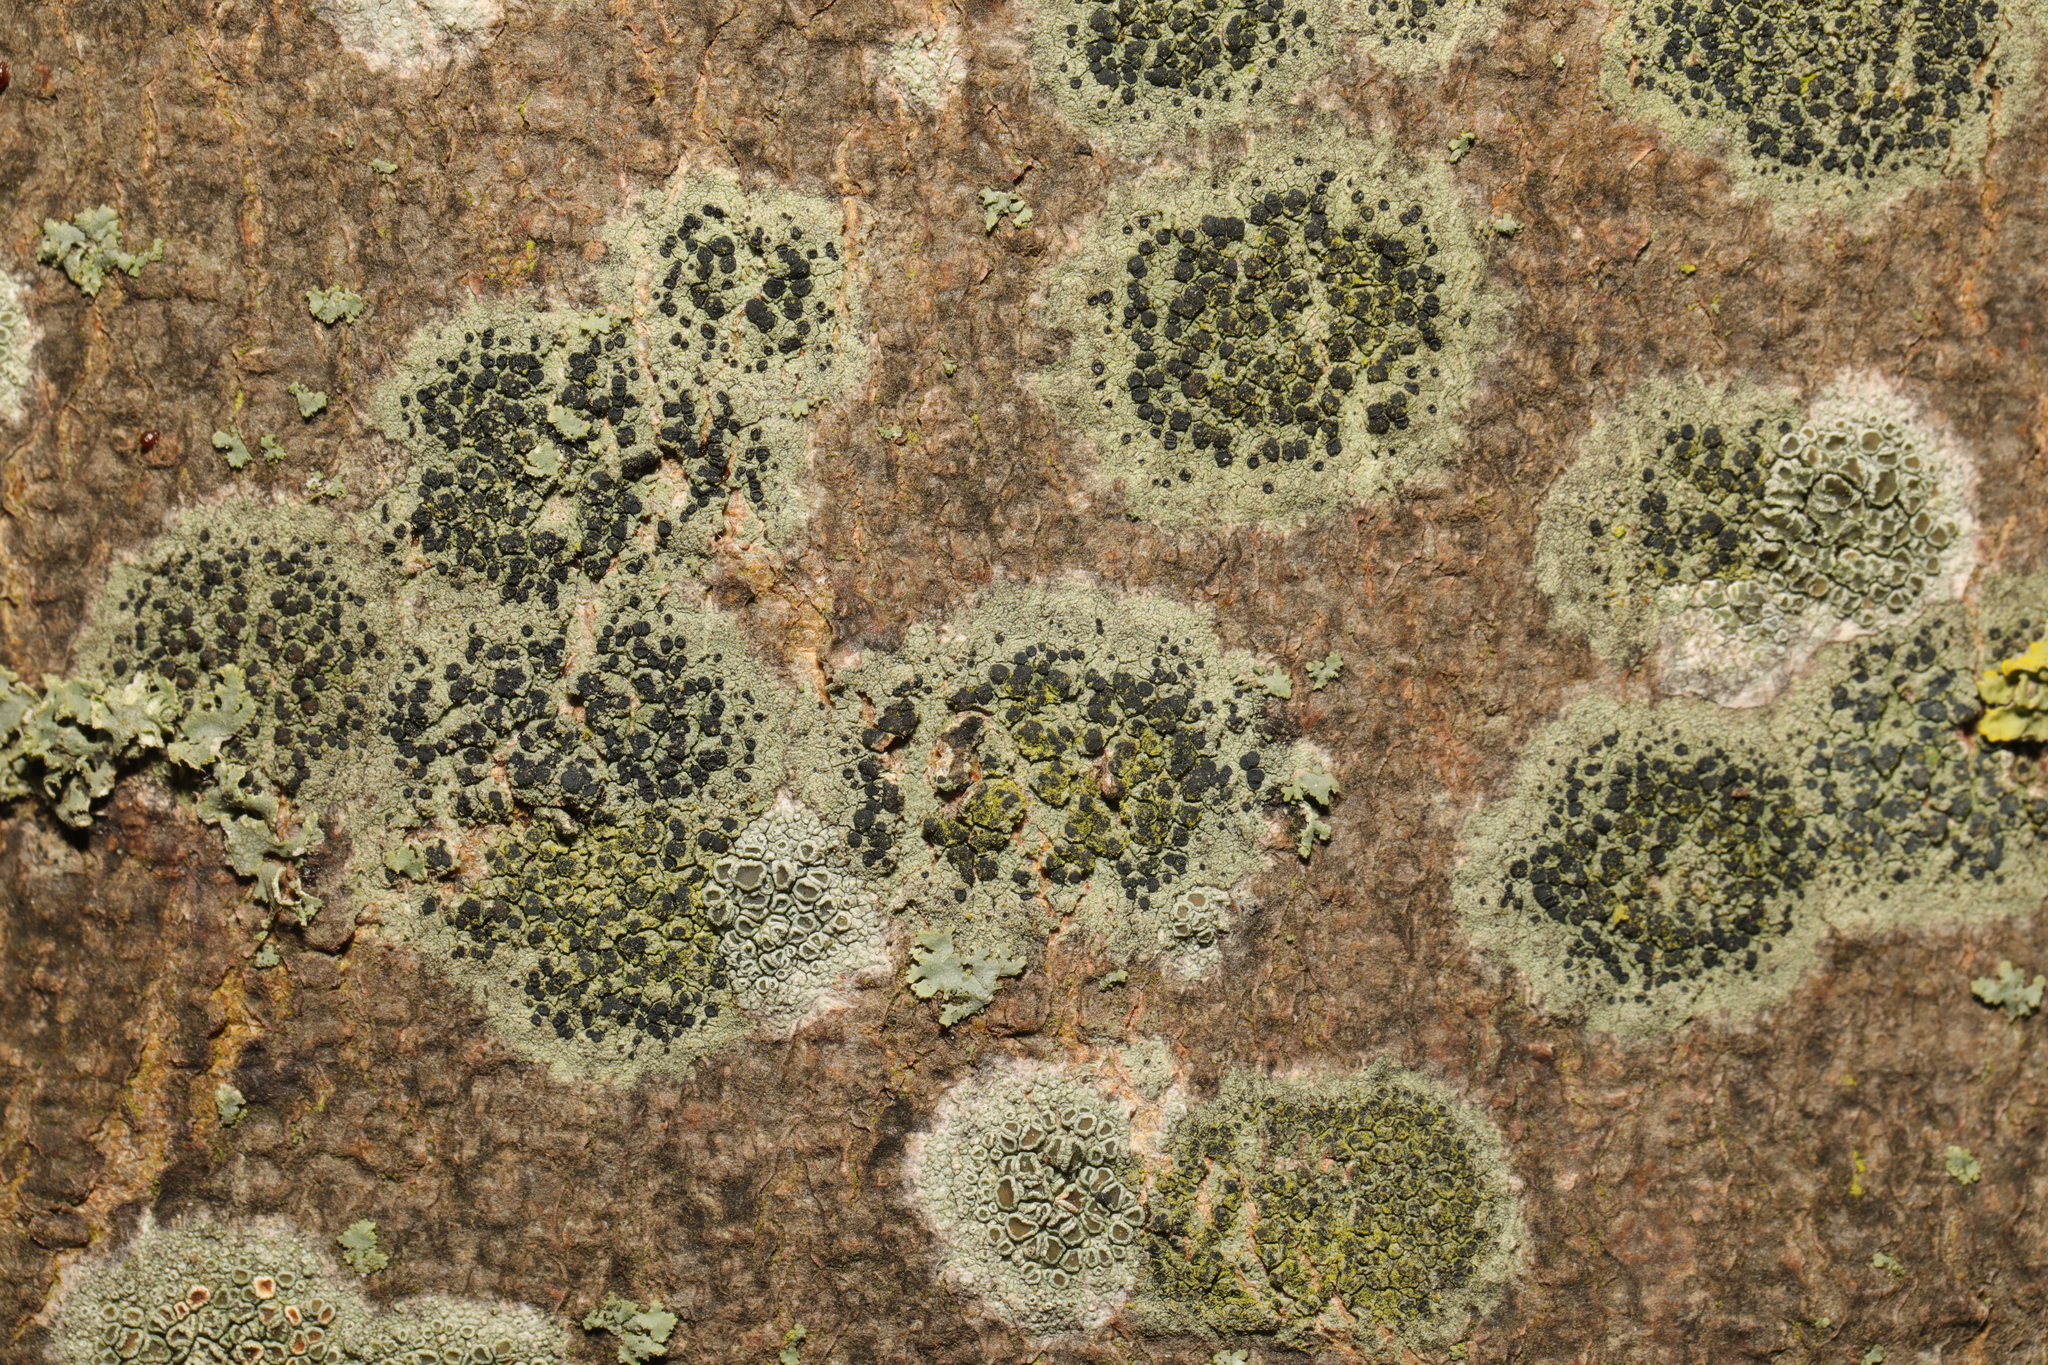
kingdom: Fungi
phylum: Ascomycota
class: Lecanoromycetes
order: Lecanorales
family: Lecanoraceae
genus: Lecidella
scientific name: Lecidella elaeochroma
